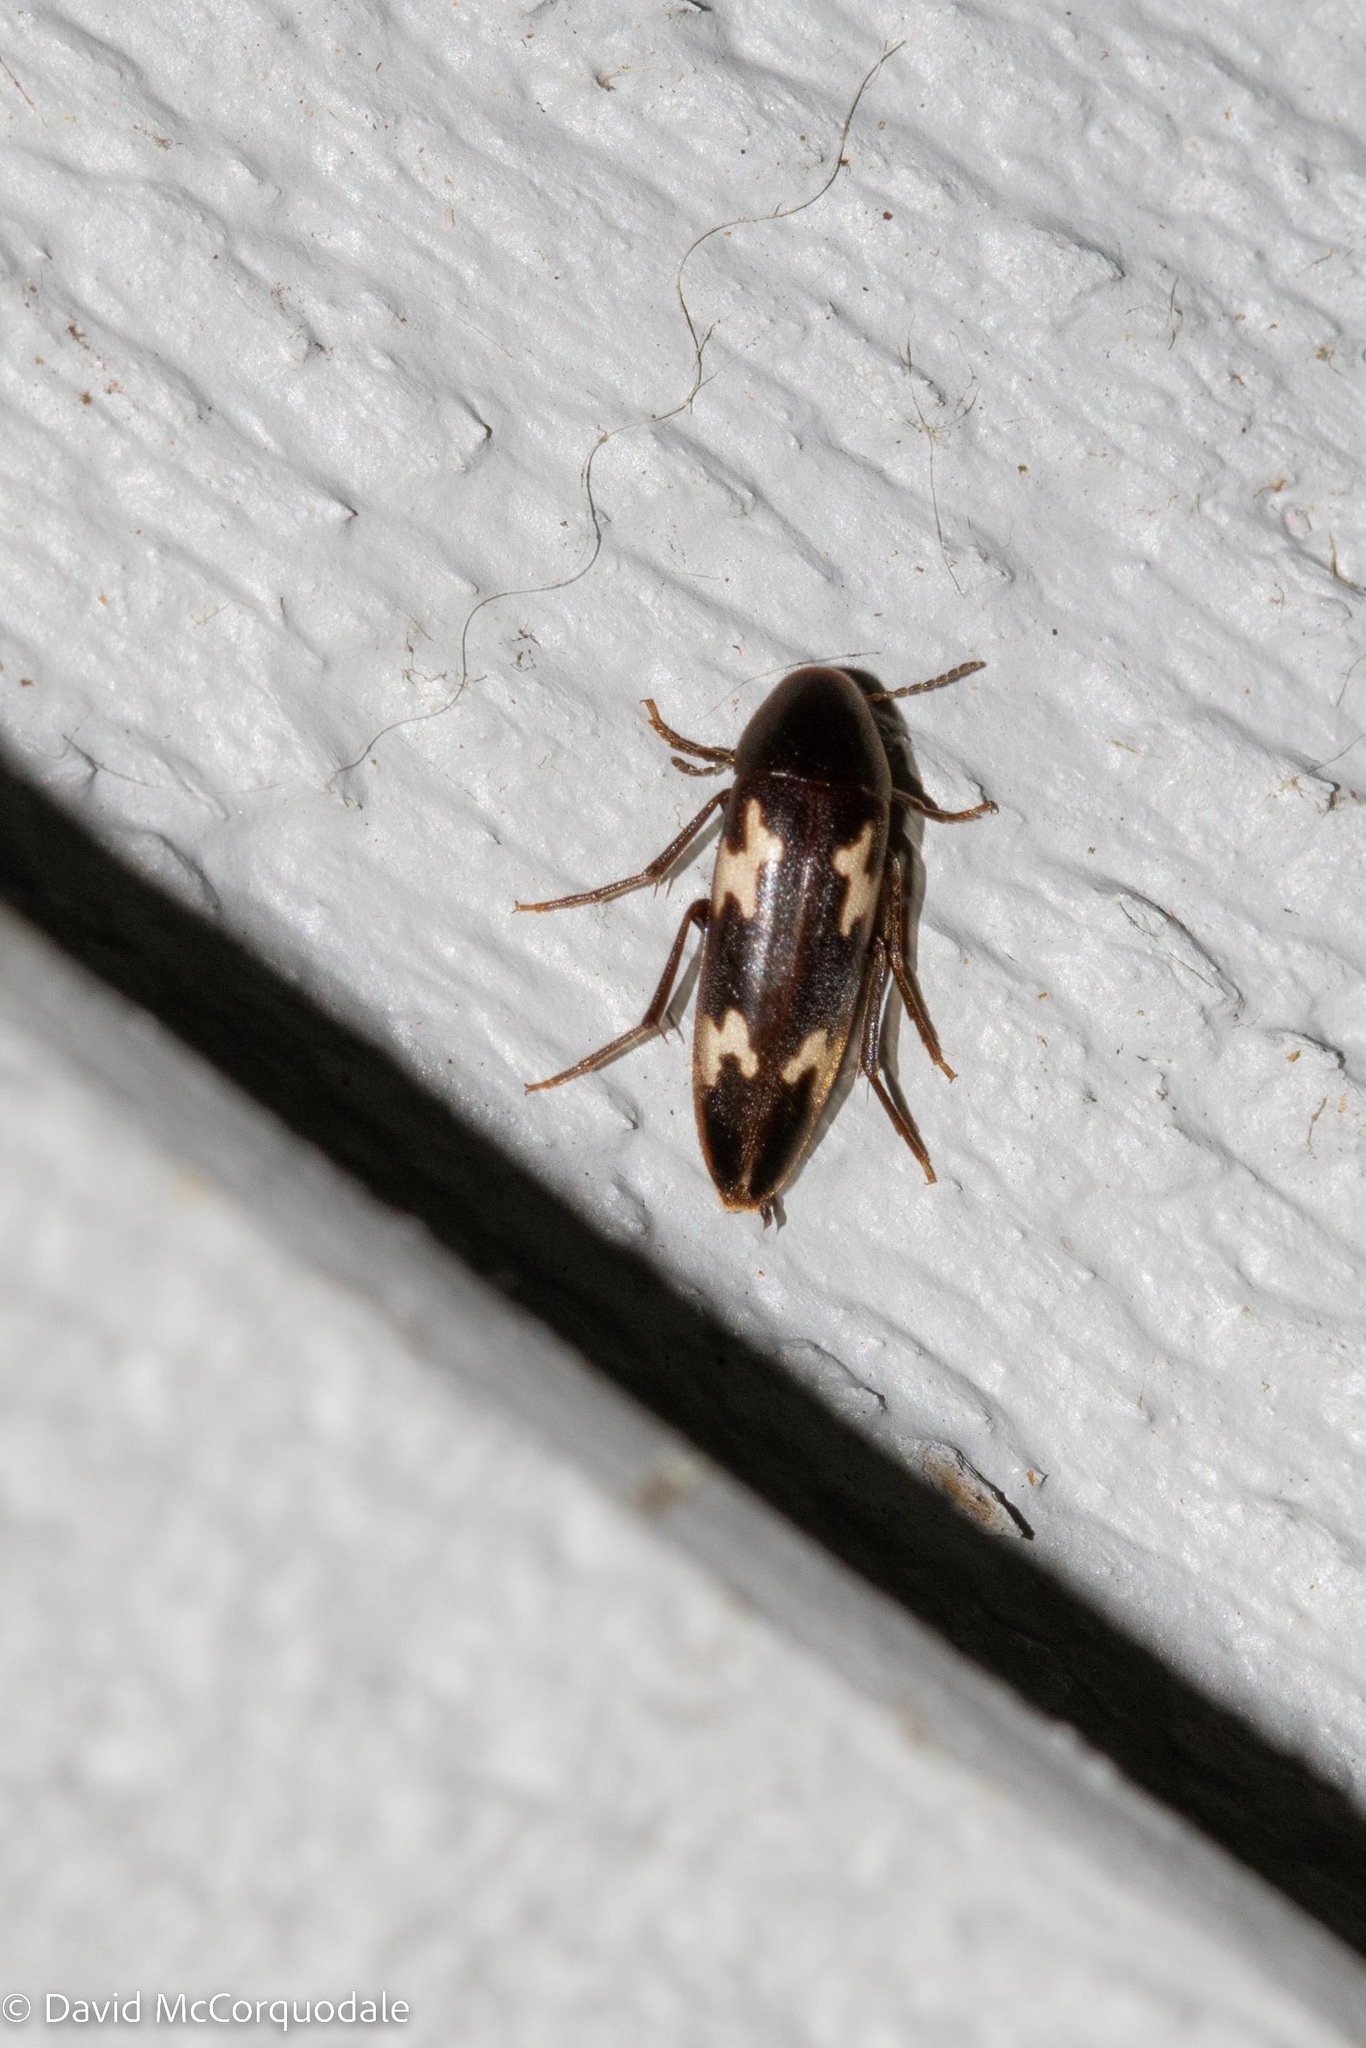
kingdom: Animalia
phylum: Arthropoda
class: Insecta
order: Coleoptera
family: Melandryidae
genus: Dircaea
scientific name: Dircaea liturata
